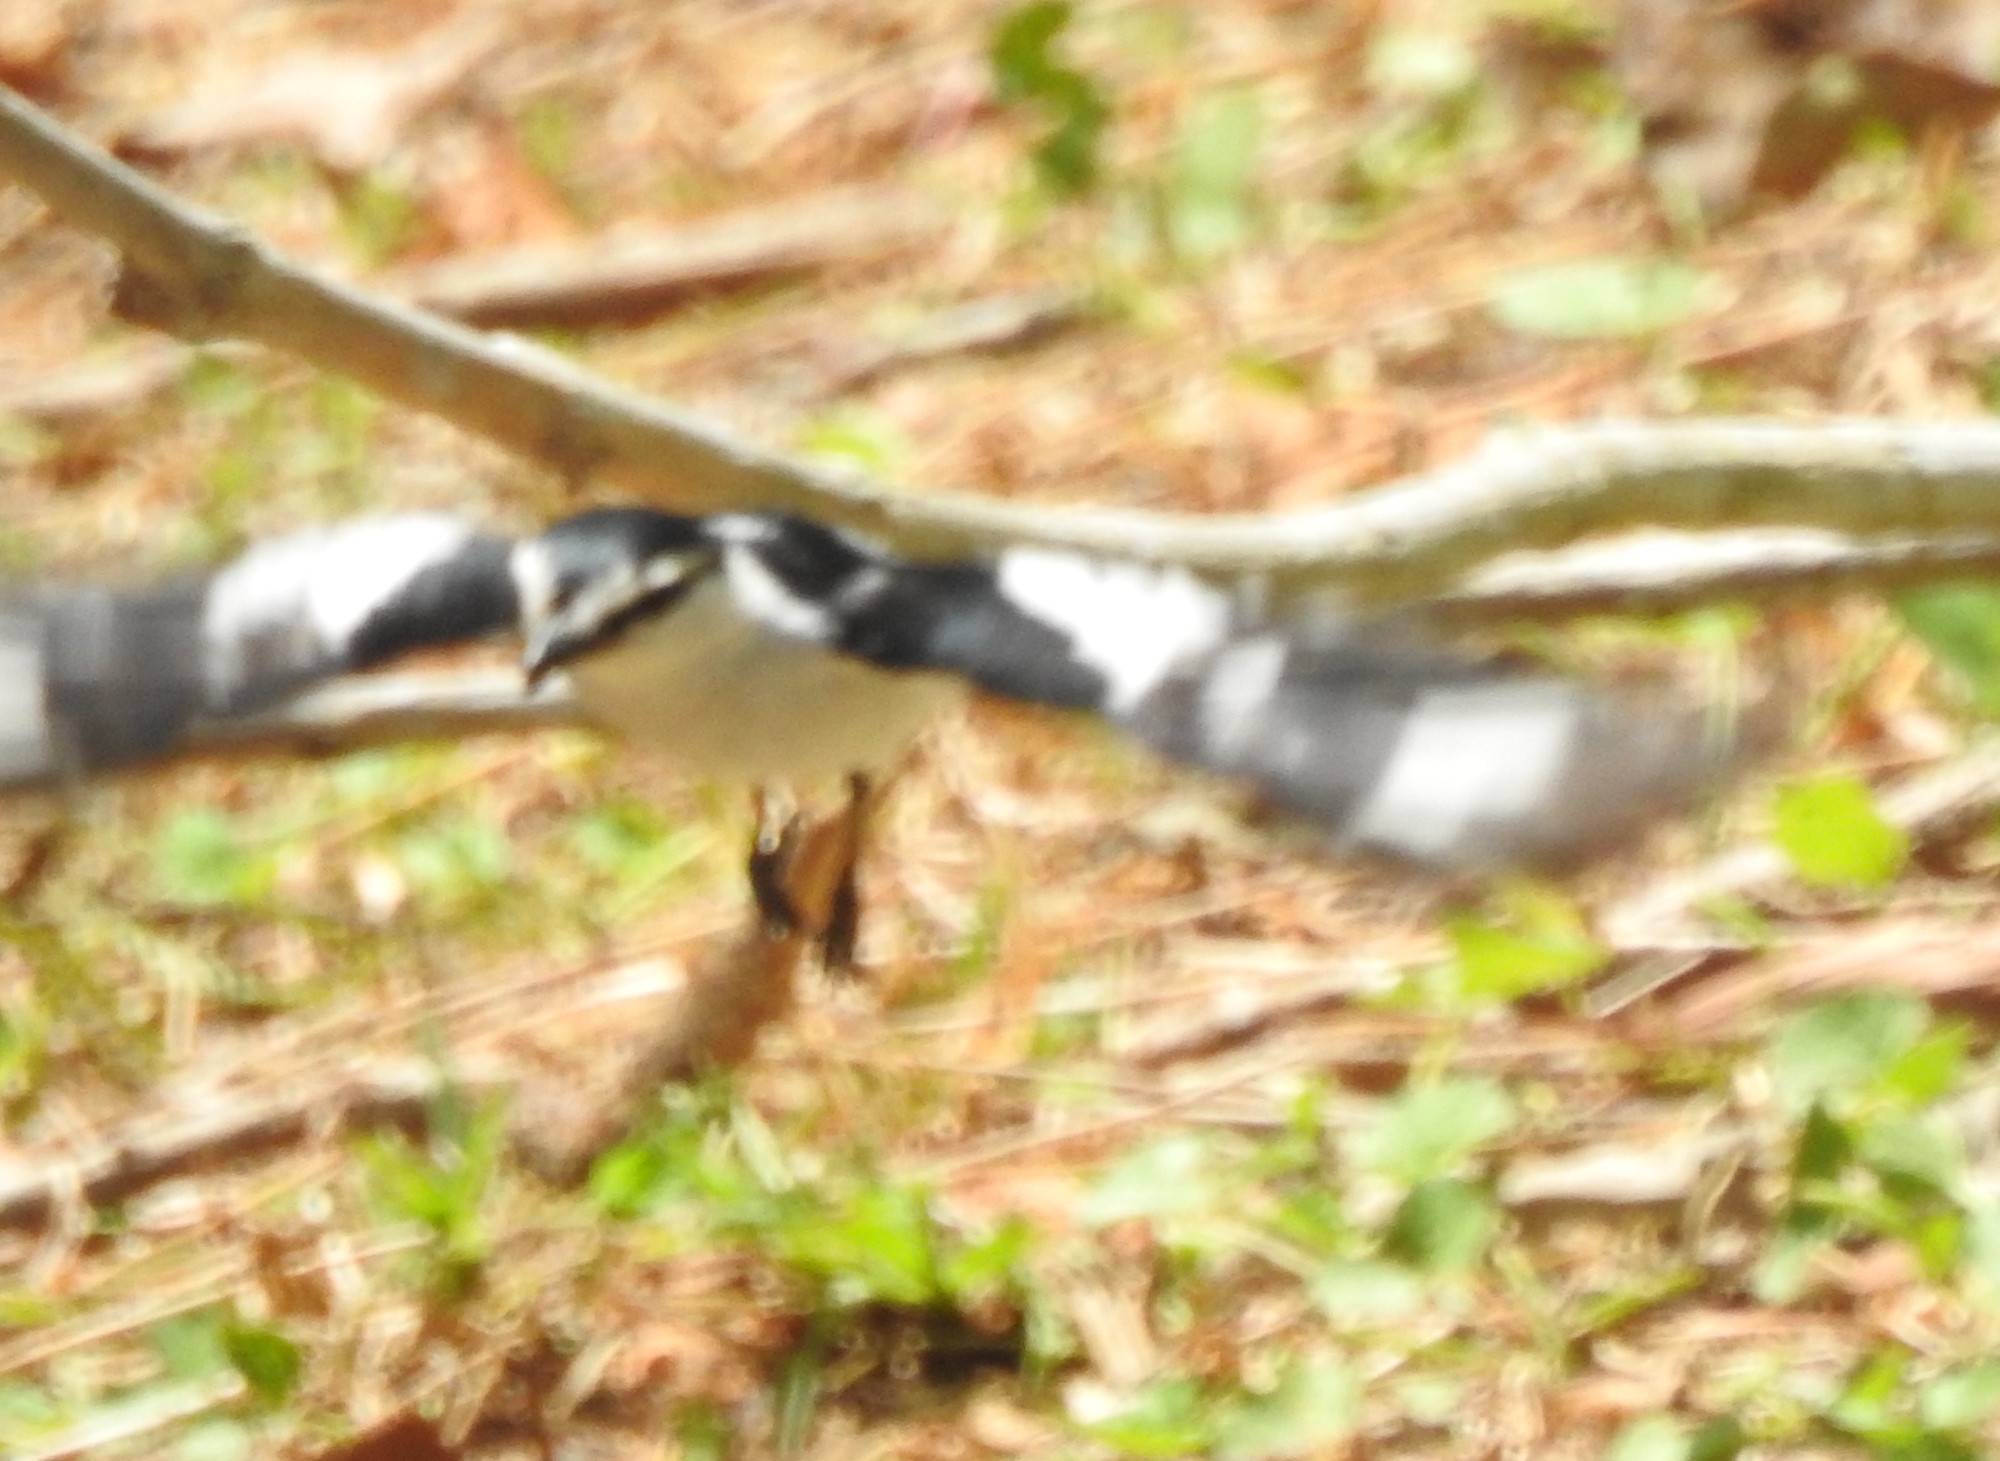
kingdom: Animalia
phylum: Chordata
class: Aves
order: Passeriformes
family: Campephagidae
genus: Lalage
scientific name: Lalage nigra
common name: Pied triller
